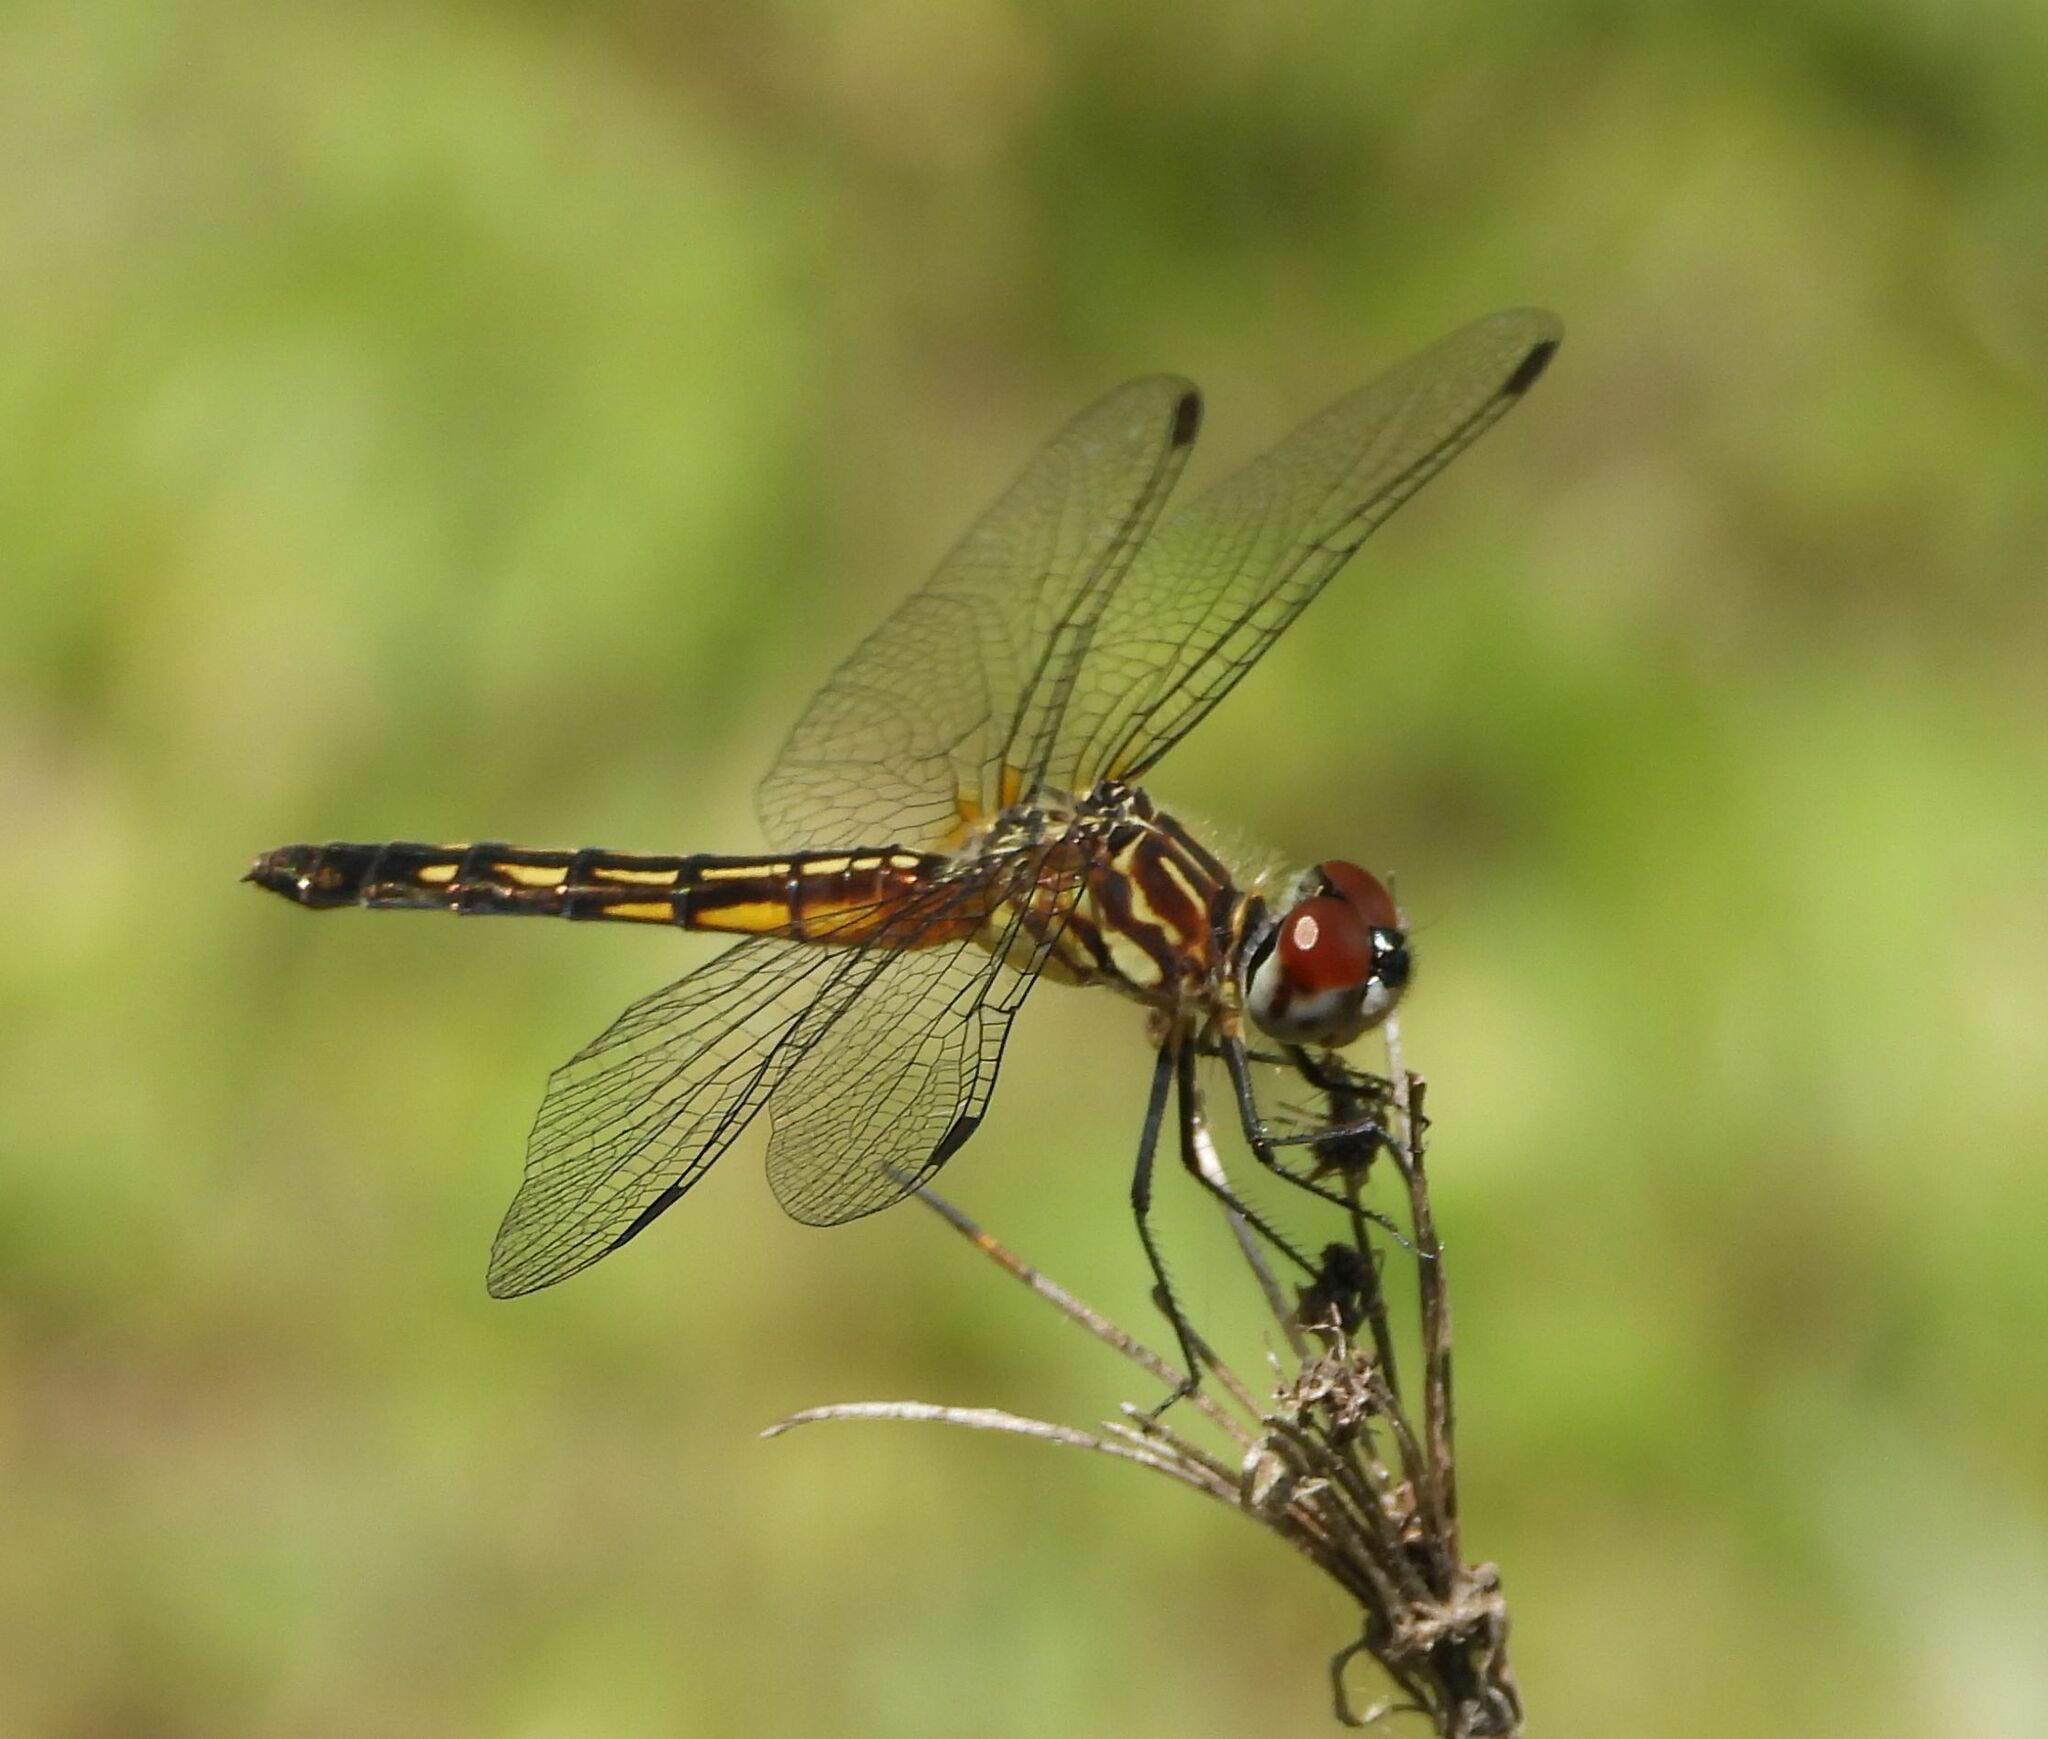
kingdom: Animalia
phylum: Arthropoda
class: Insecta
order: Odonata
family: Libellulidae
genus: Pachydiplax
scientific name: Pachydiplax longipennis
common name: Blue dasher
